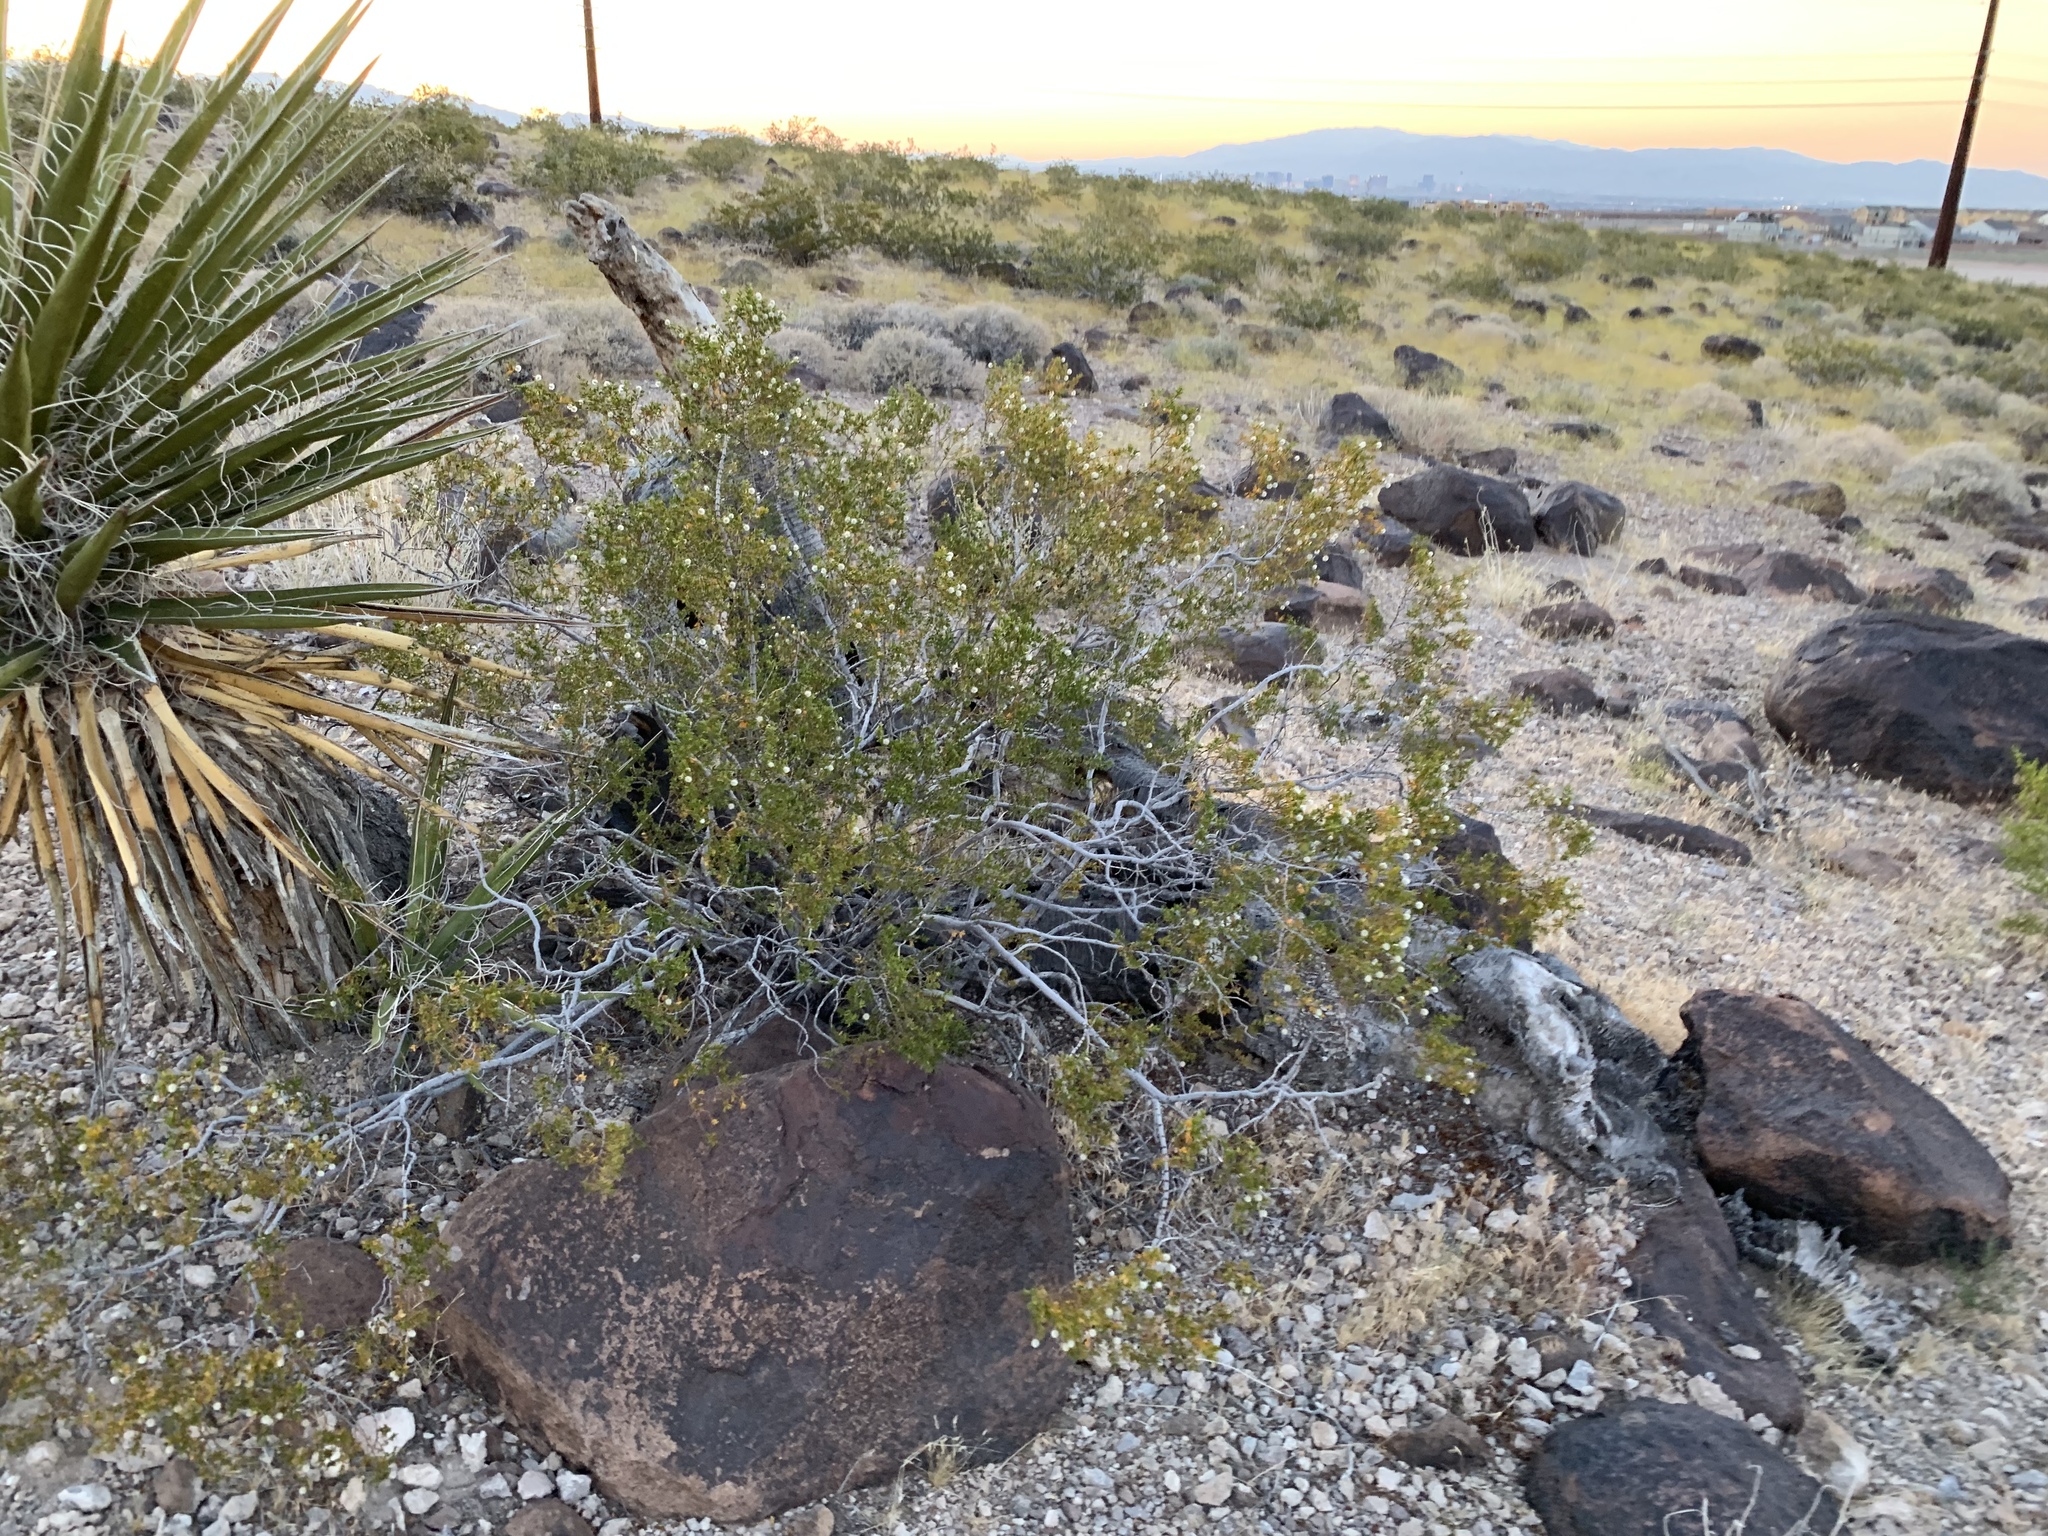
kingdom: Plantae
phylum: Tracheophyta
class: Magnoliopsida
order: Zygophyllales
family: Zygophyllaceae
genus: Larrea
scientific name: Larrea tridentata
